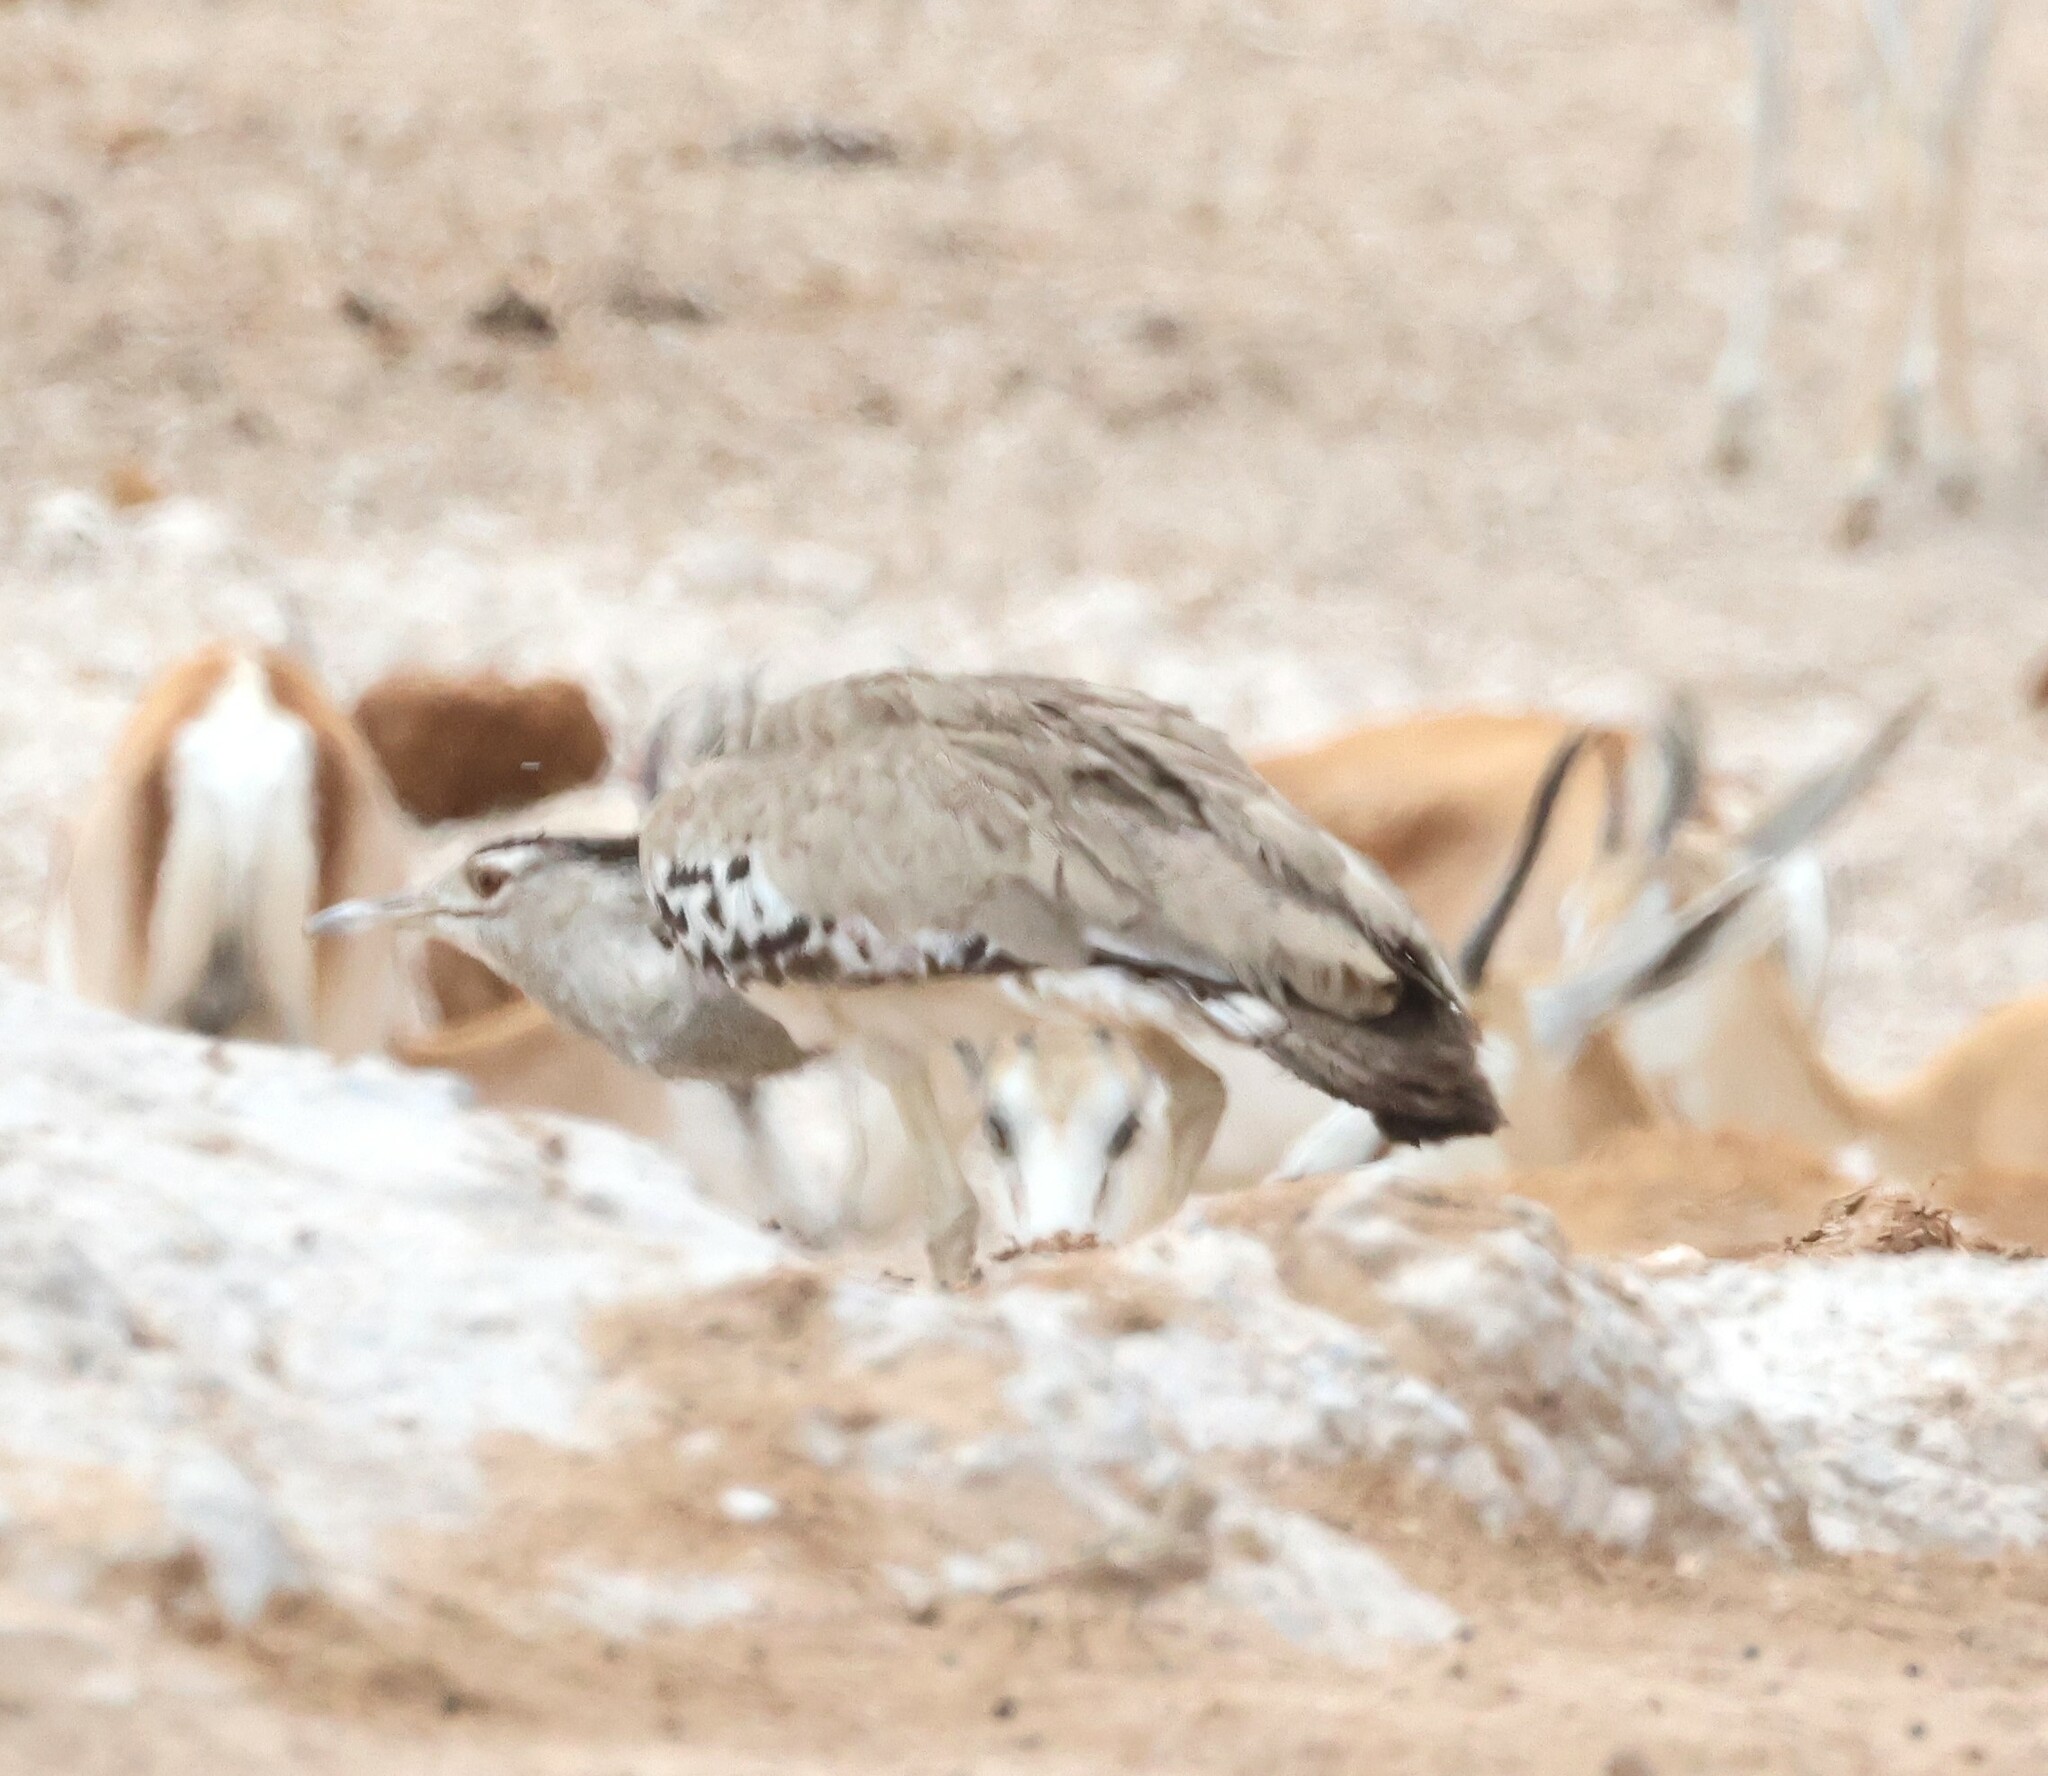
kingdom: Animalia
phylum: Chordata
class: Aves
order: Otidiformes
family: Otididae
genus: Ardeotis
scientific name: Ardeotis kori
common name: Kori bustard
